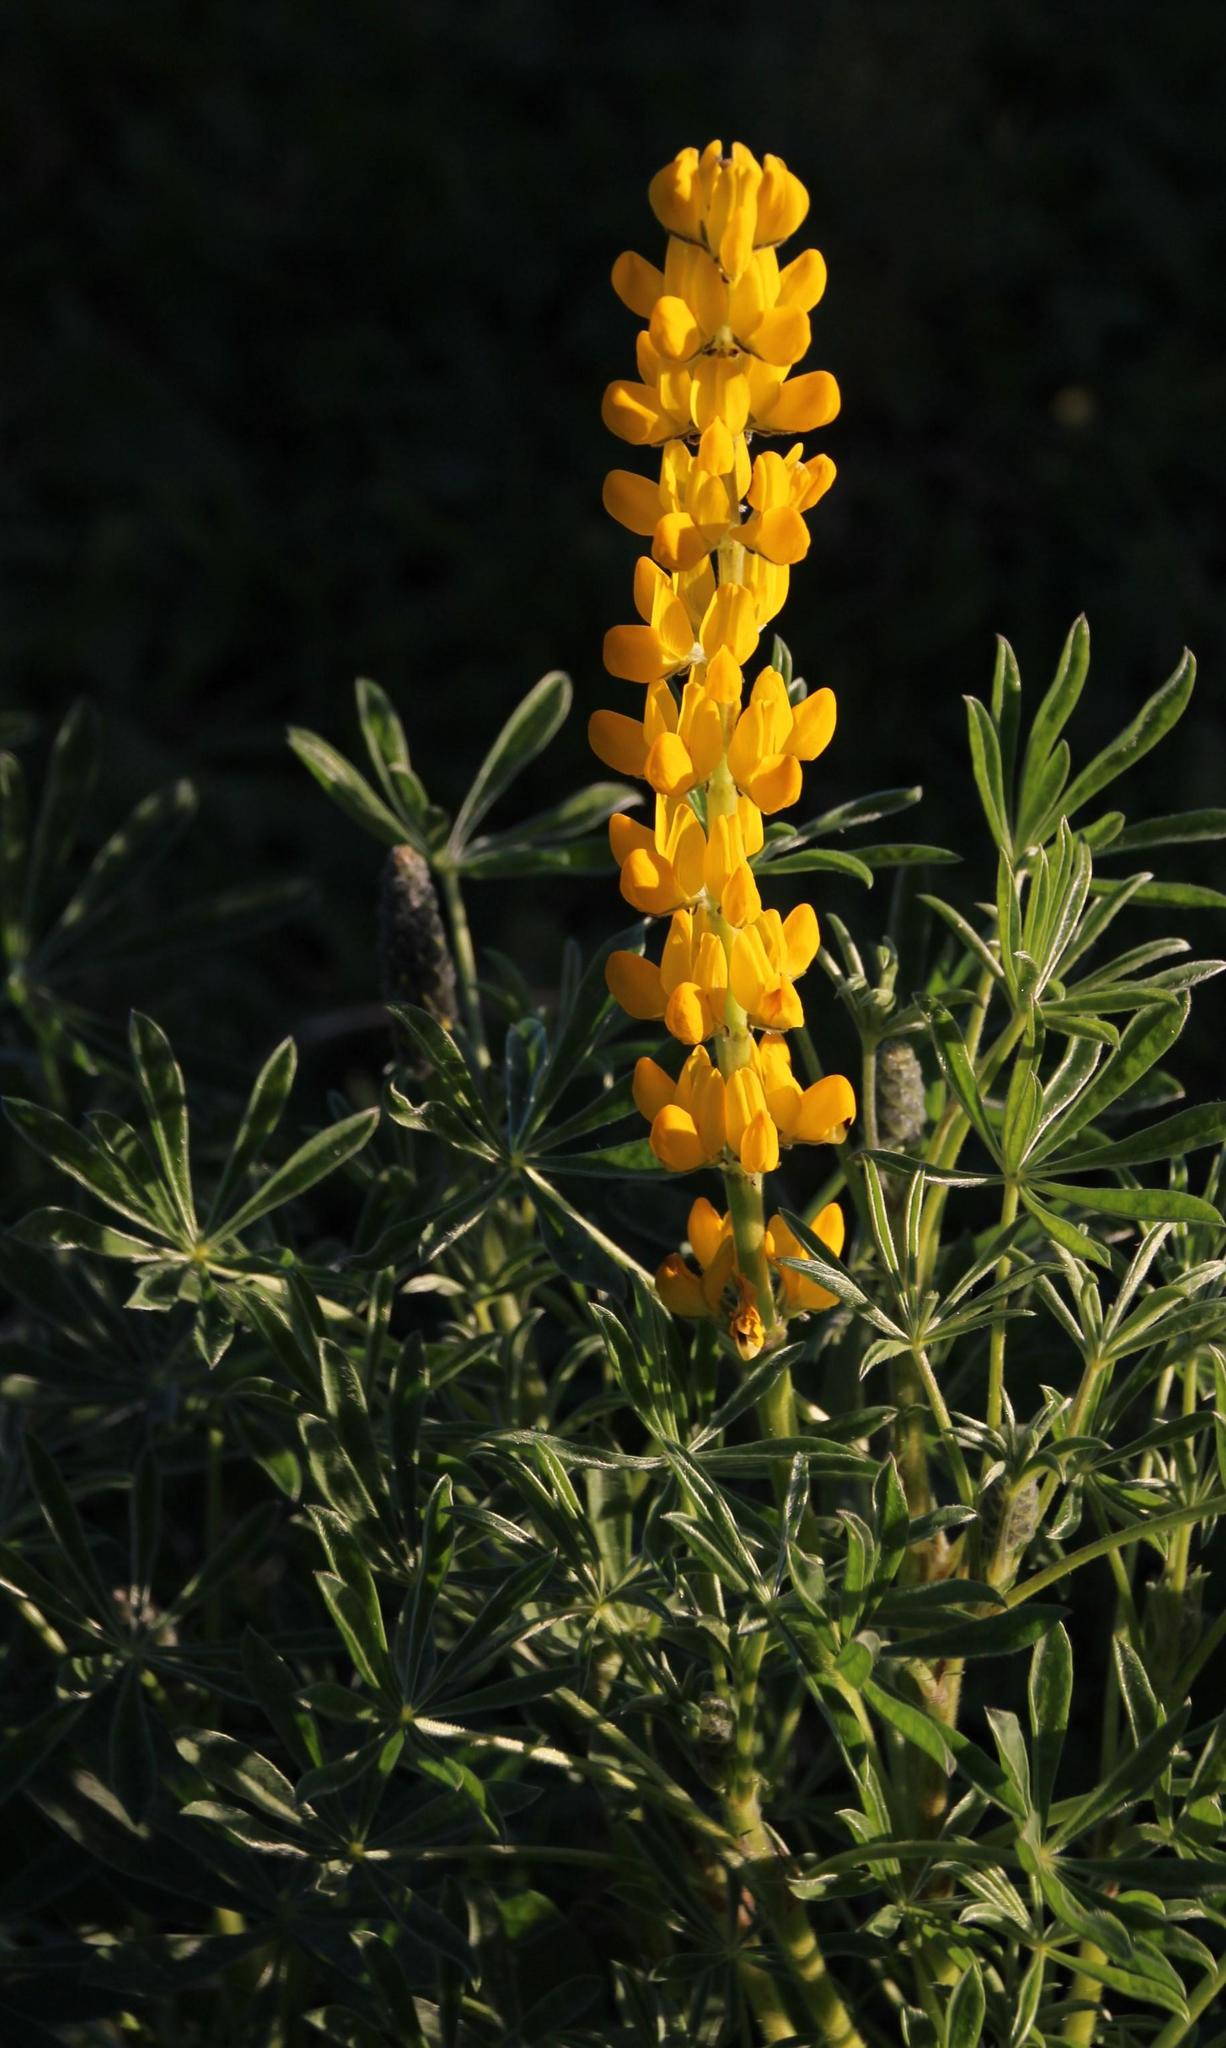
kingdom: Plantae
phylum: Tracheophyta
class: Magnoliopsida
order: Fabales
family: Fabaceae
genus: Lupinus
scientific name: Lupinus luteus
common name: European yellow lupine
